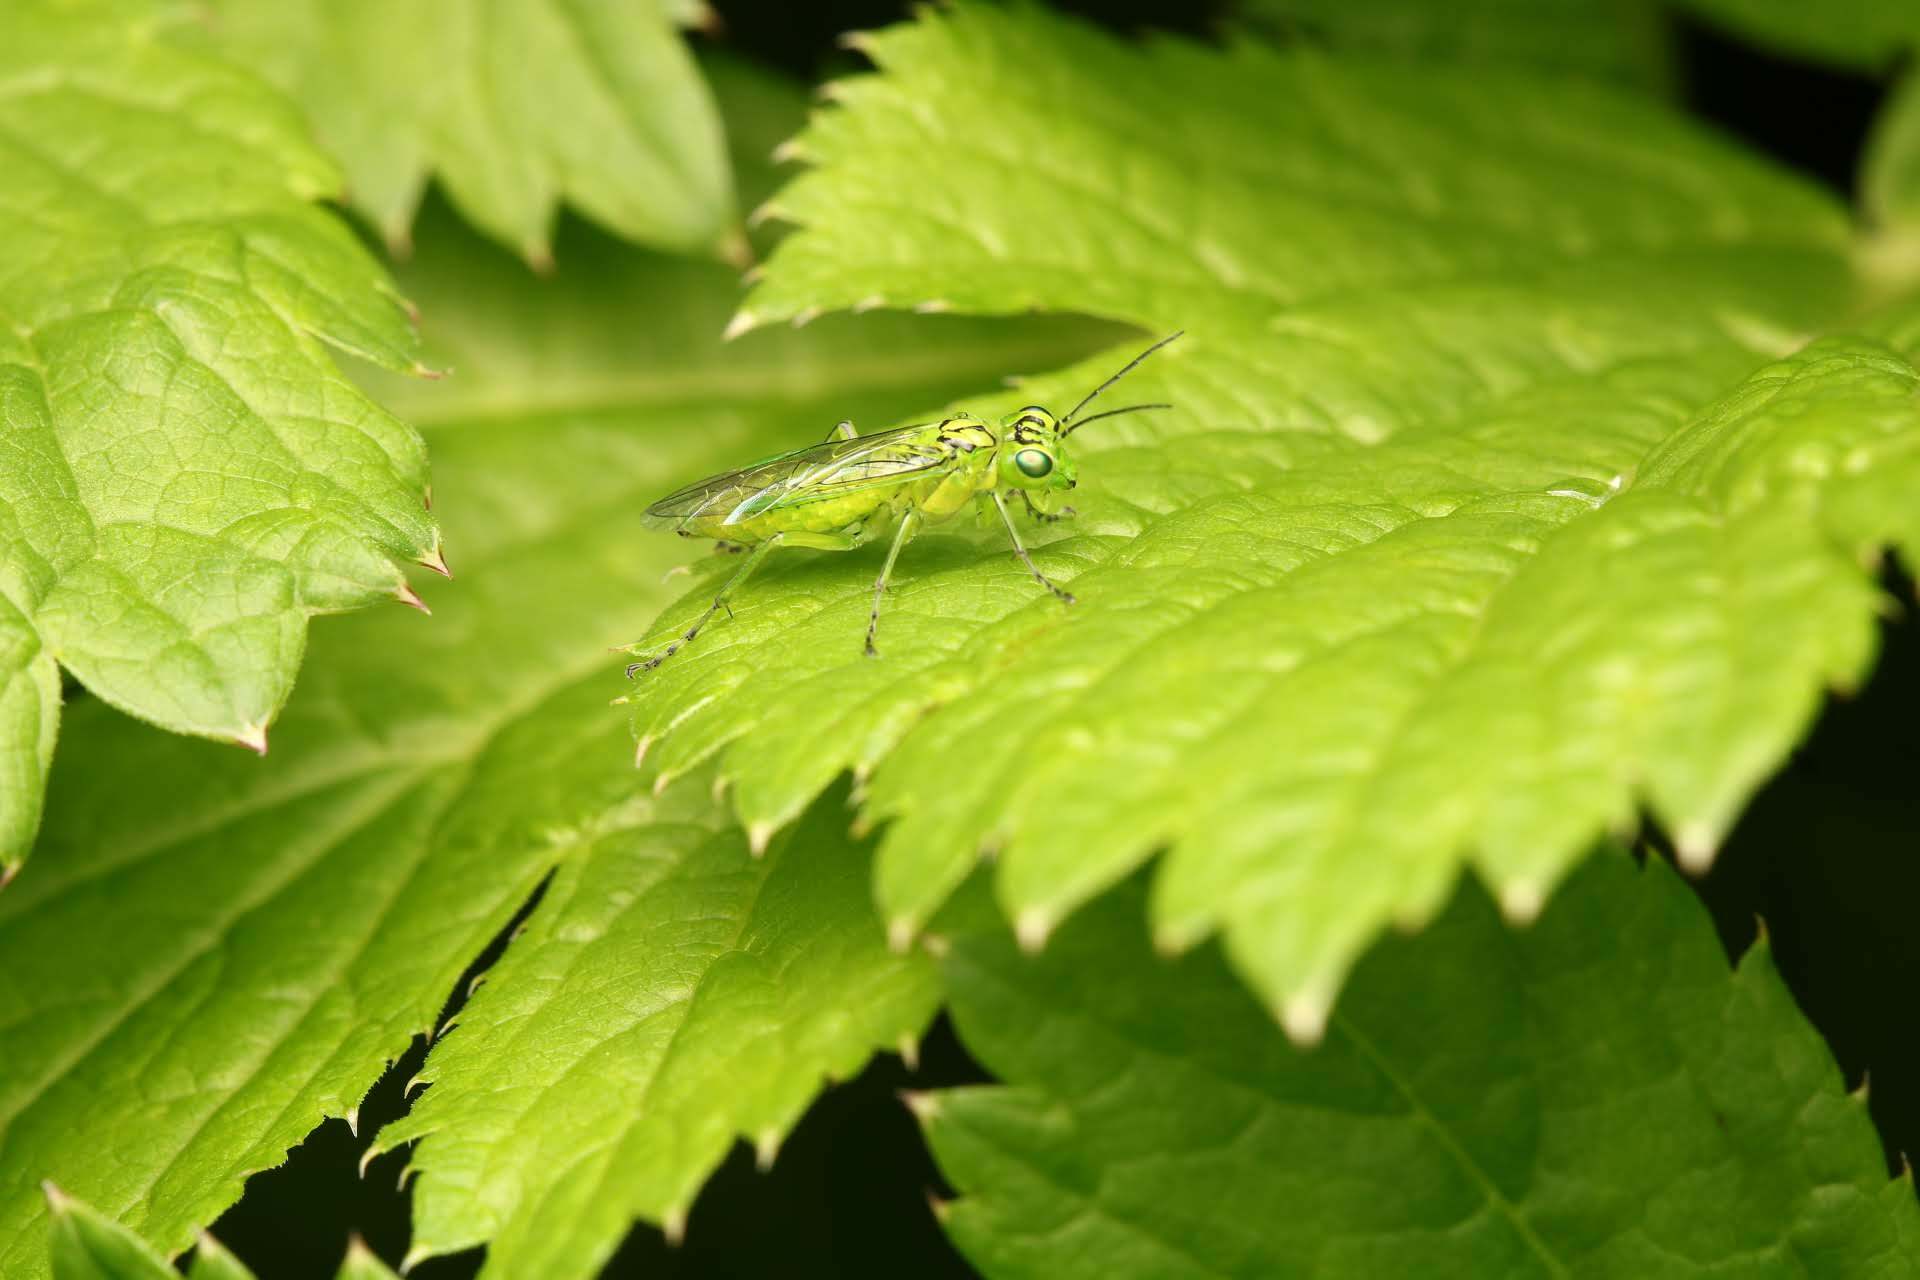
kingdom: Animalia
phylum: Arthropoda
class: Insecta
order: Hymenoptera
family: Tenthredinidae
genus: Rhogogaster
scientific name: Rhogogaster punctulata
